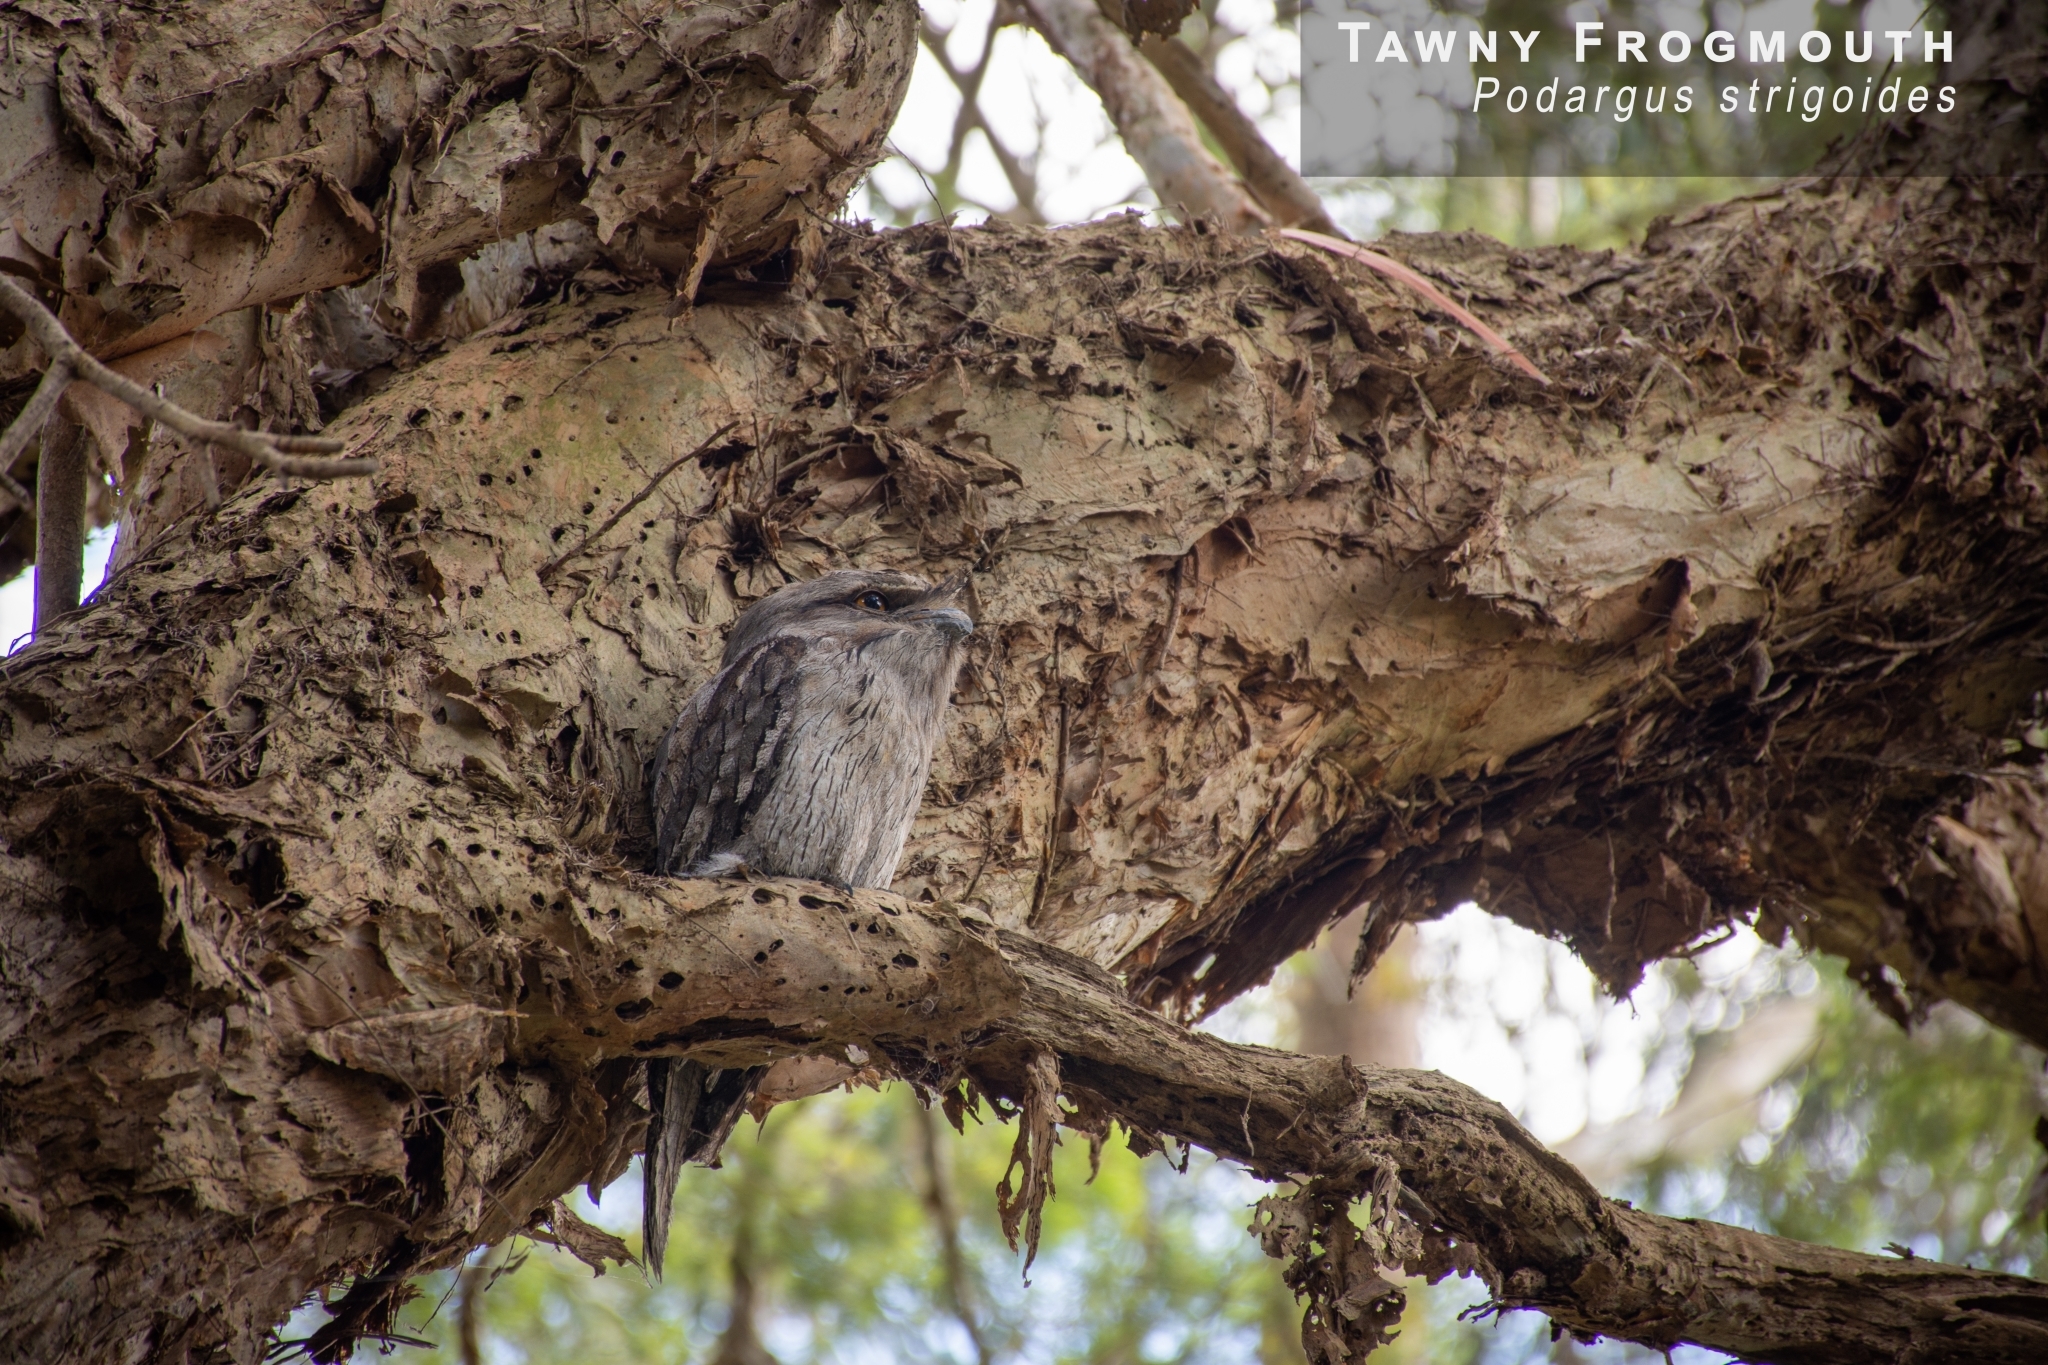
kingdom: Animalia
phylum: Chordata
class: Aves
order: Caprimulgiformes
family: Podargidae
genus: Podargus
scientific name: Podargus strigoides
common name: Tawny frogmouth
